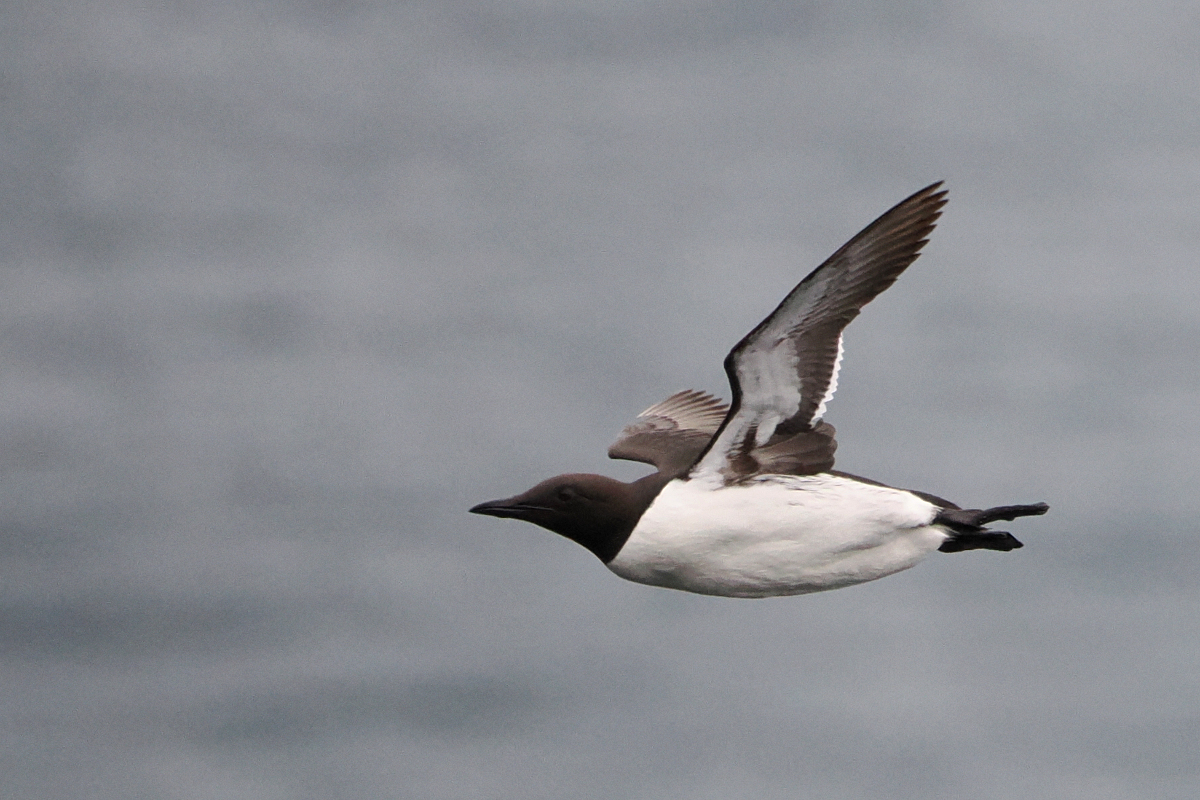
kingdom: Animalia
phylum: Chordata
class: Aves
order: Charadriiformes
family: Alcidae
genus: Uria
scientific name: Uria aalge
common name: Common murre
